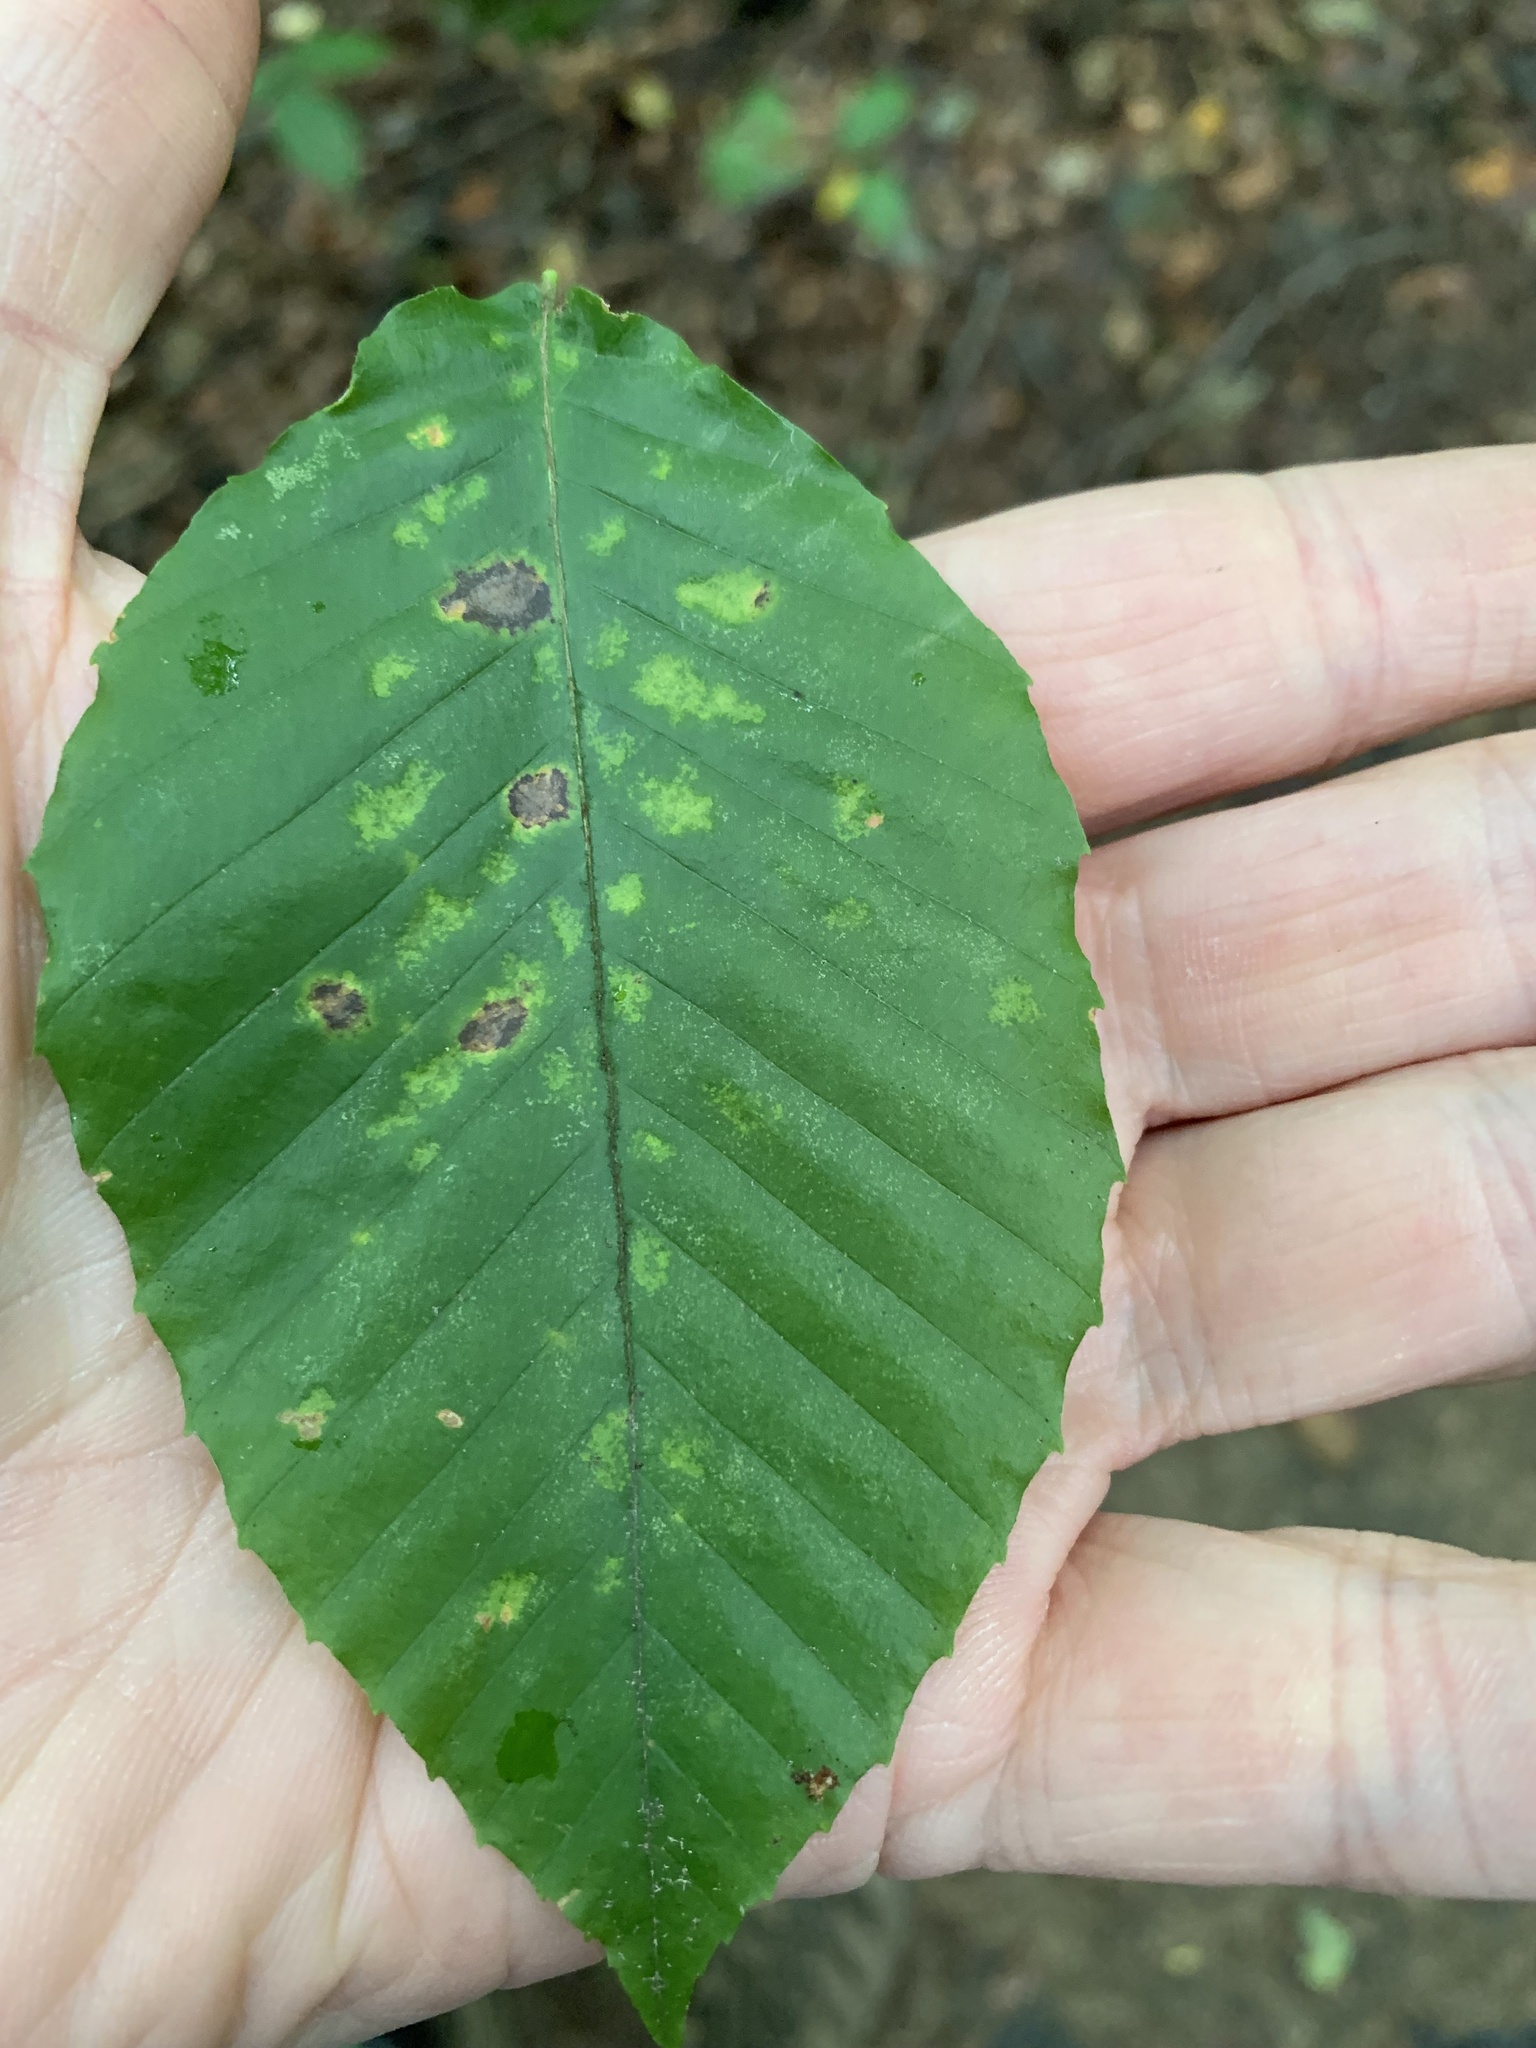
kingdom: Animalia
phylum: Arthropoda
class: Arachnida
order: Trombidiformes
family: Eriophyidae
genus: Acalitus
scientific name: Acalitus
